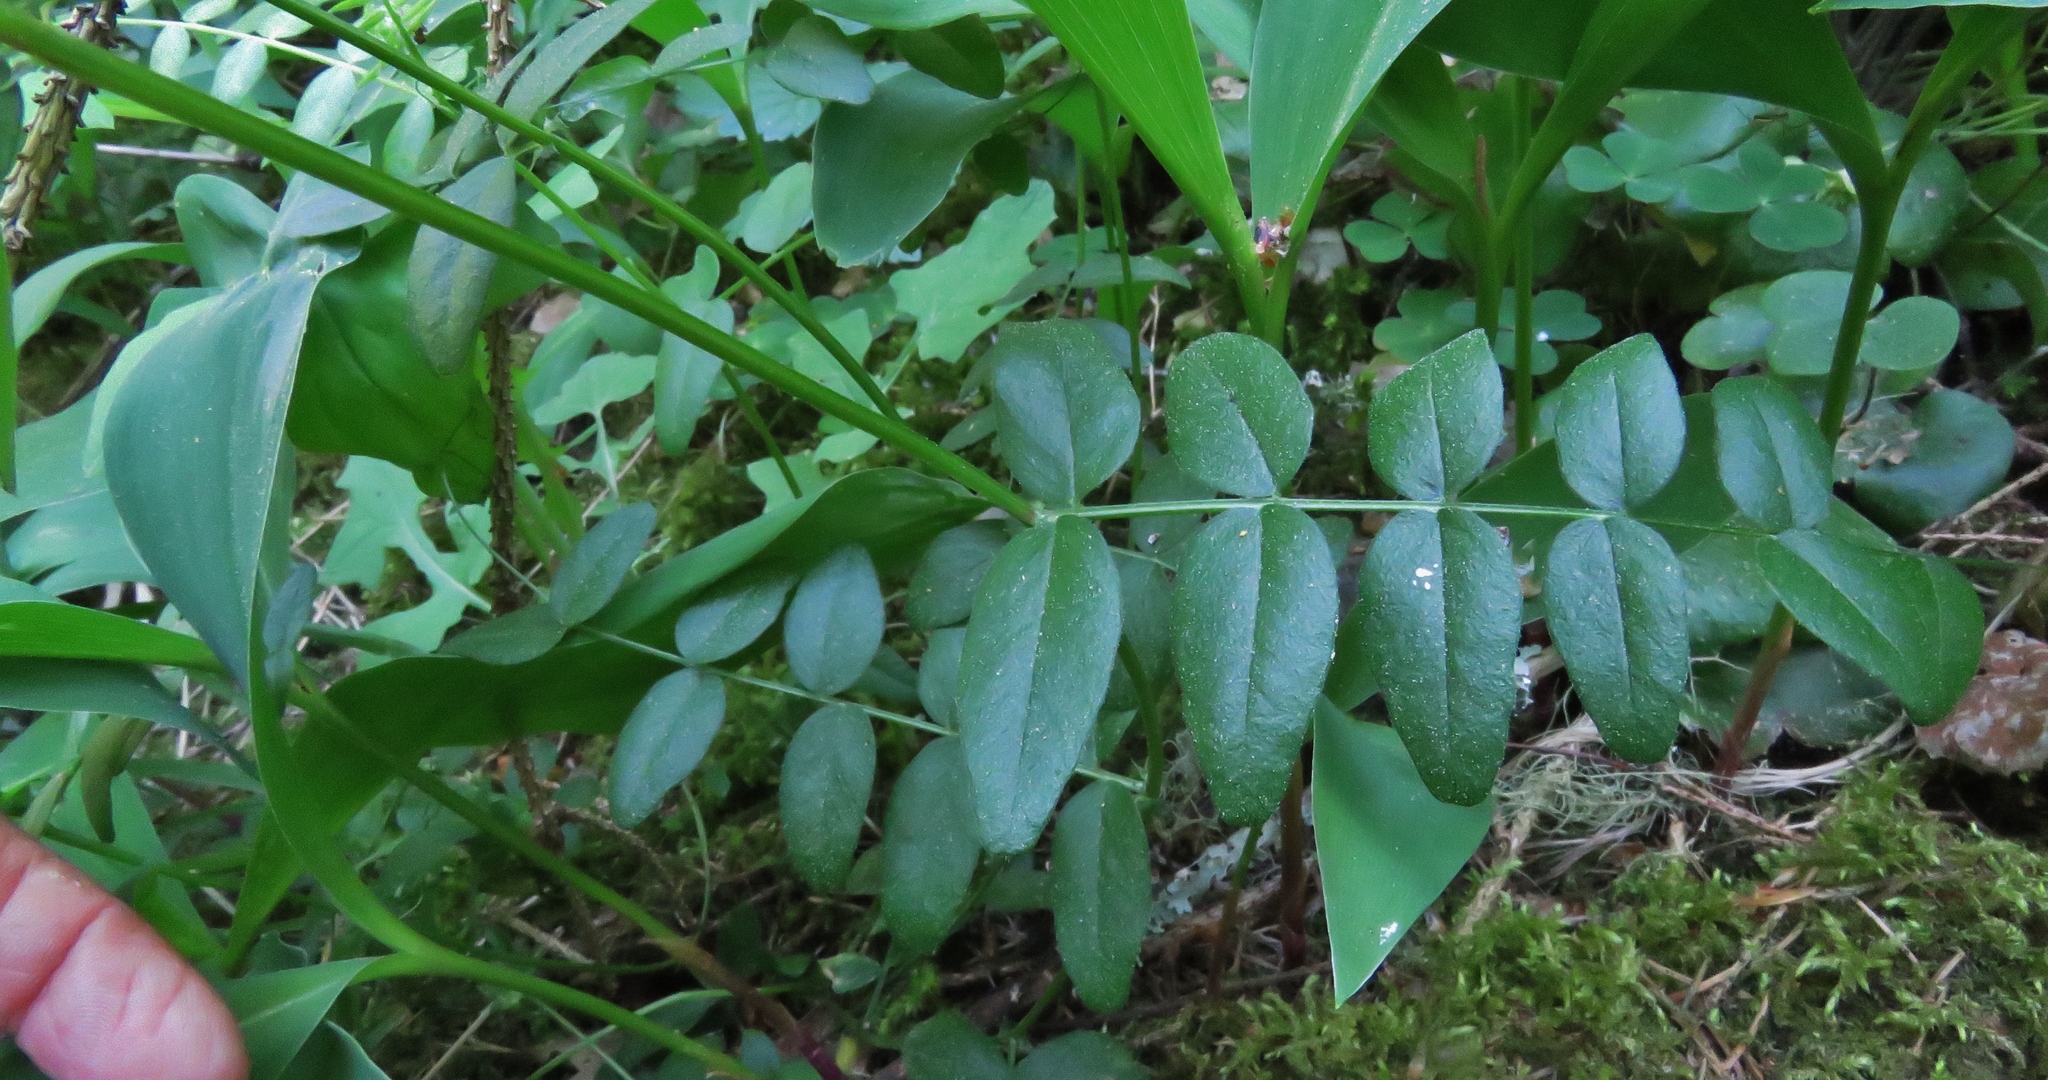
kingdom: Plantae
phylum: Tracheophyta
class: Magnoliopsida
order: Fabales
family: Fabaceae
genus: Vicia
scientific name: Vicia sepium
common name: Bush vetch
